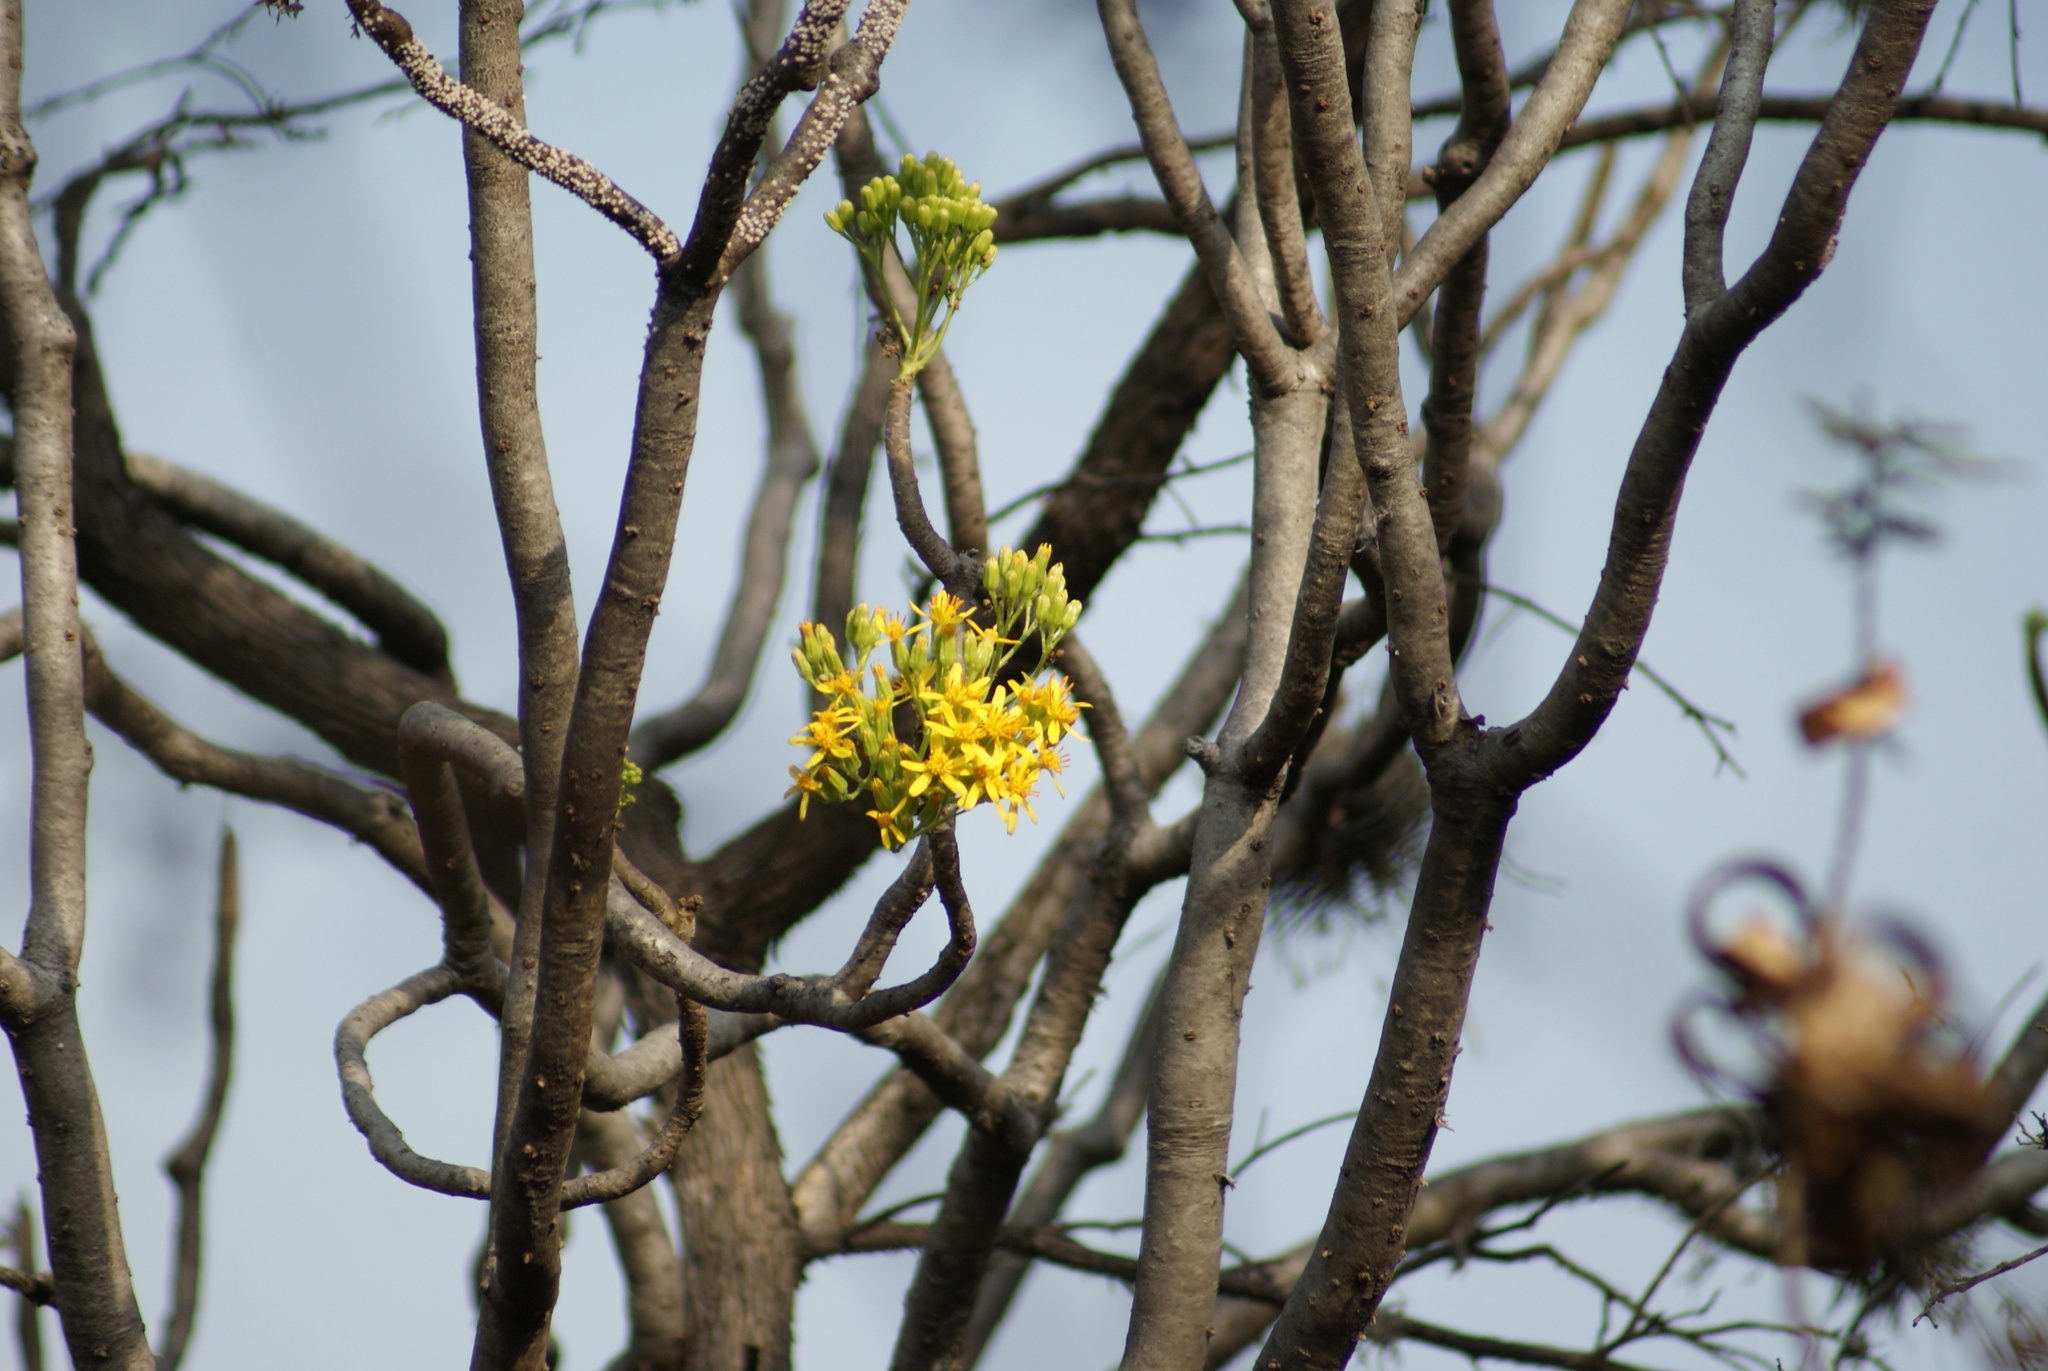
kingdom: Plantae
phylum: Tracheophyta
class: Magnoliopsida
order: Asterales
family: Asteraceae
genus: Pittocaulon
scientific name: Pittocaulon praecox
